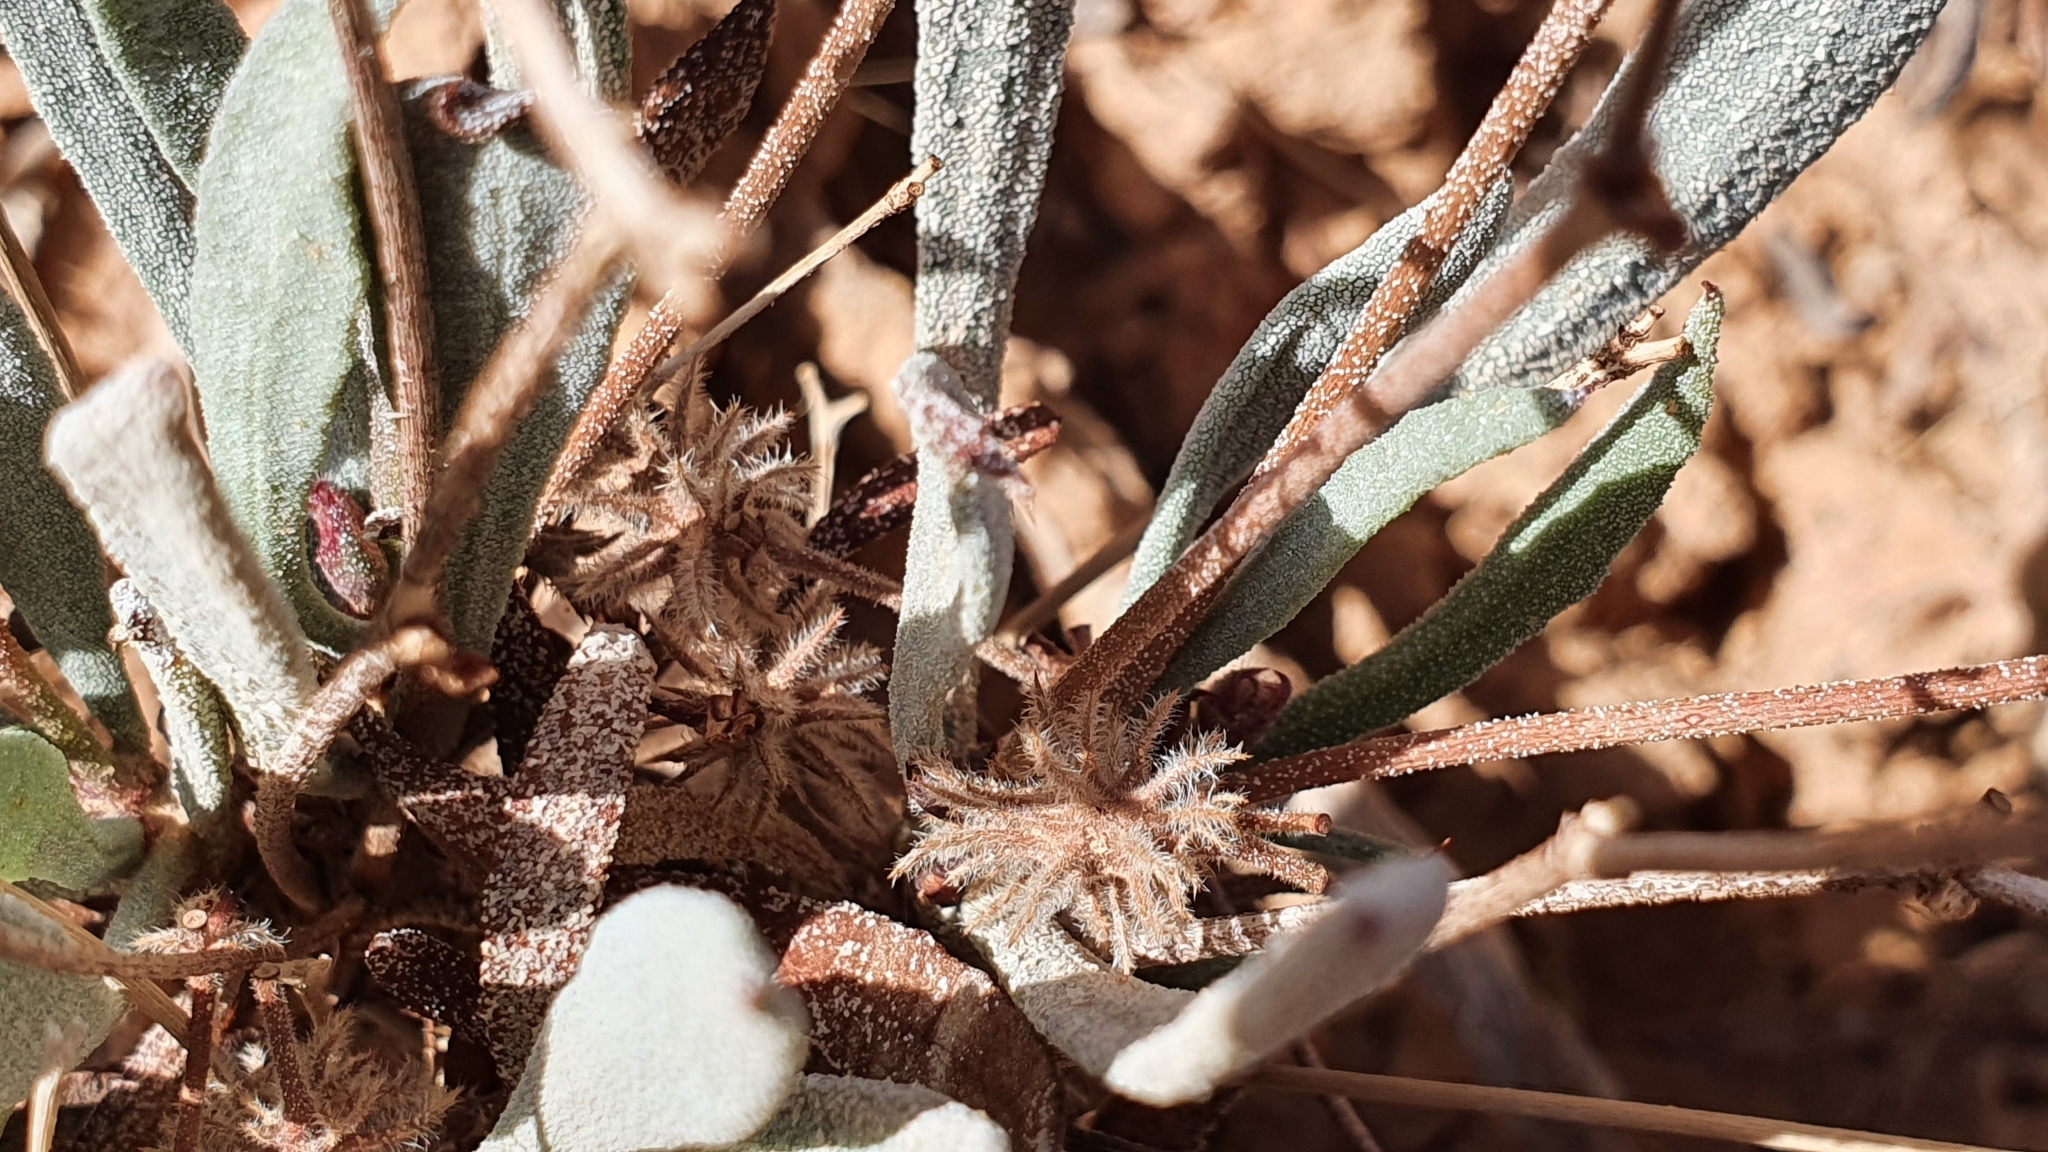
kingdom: Plantae
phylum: Tracheophyta
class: Magnoliopsida
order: Caryophyllales
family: Plumbaginaceae
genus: Ceratolimon
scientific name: Ceratolimon feei
